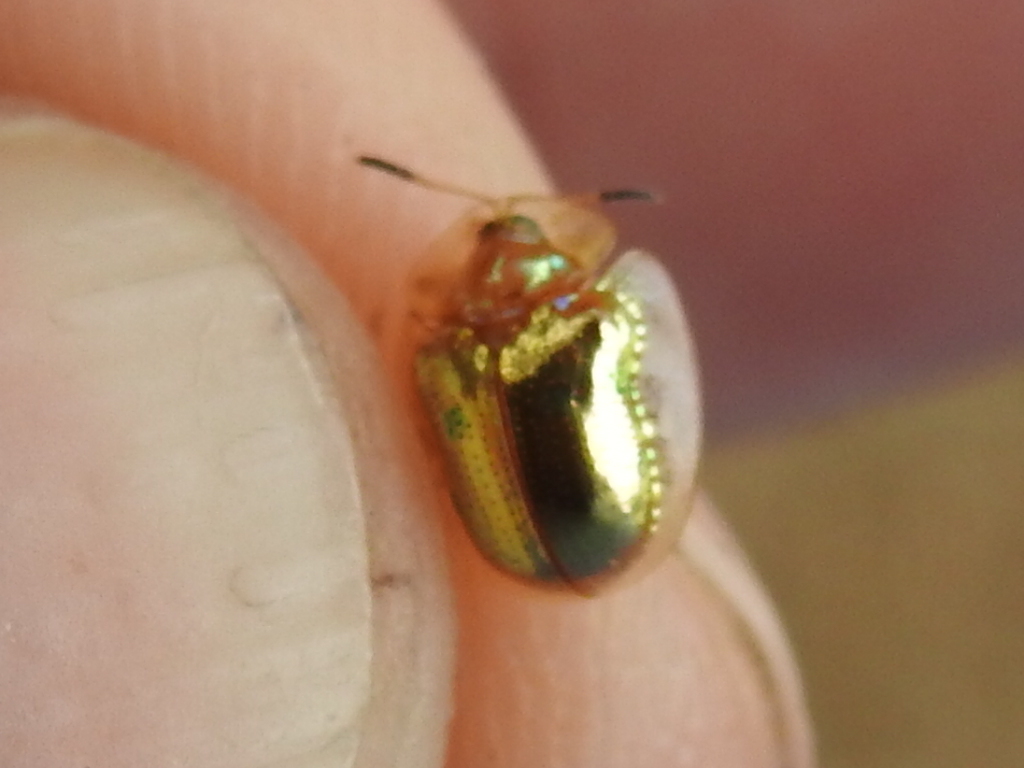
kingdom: Animalia
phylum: Arthropoda
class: Insecta
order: Coleoptera
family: Chrysomelidae
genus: Charidotella
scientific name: Charidotella sexpunctata
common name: Golden tortoise beetle
